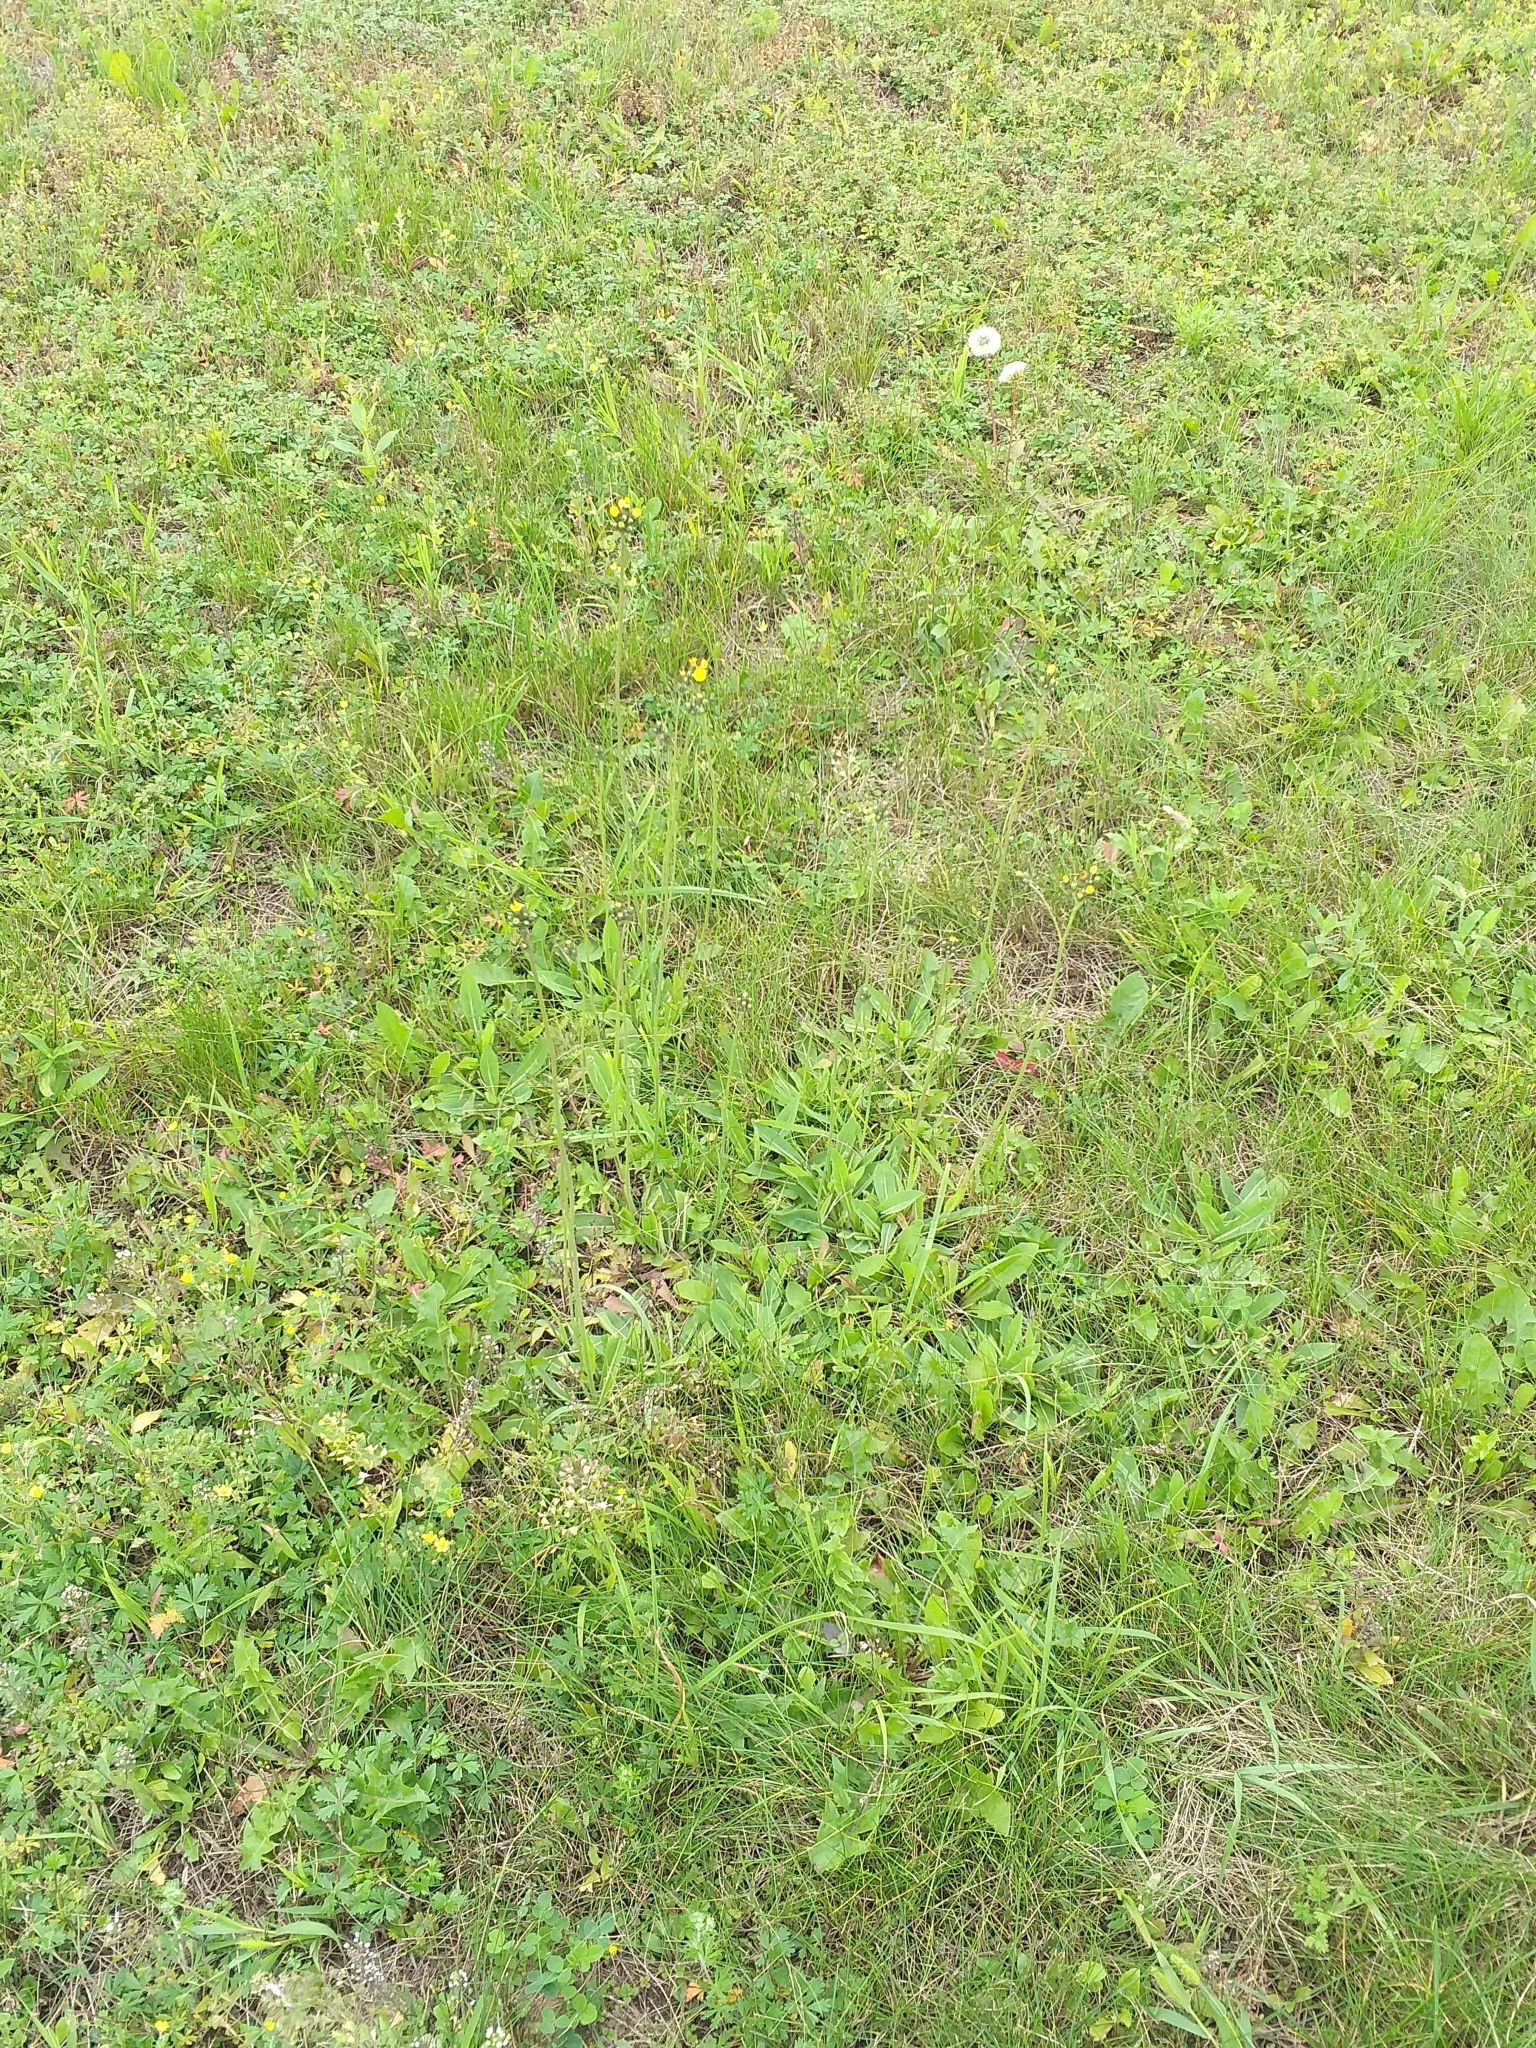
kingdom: Plantae
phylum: Tracheophyta
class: Magnoliopsida
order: Asterales
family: Asteraceae
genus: Pilosella
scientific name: Pilosella
